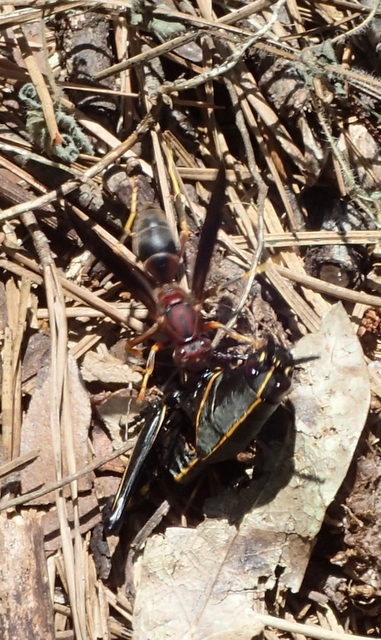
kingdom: Animalia
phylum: Arthropoda
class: Insecta
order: Hymenoptera
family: Eumenidae
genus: Polistes
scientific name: Polistes metricus
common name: Metric paper wasp
